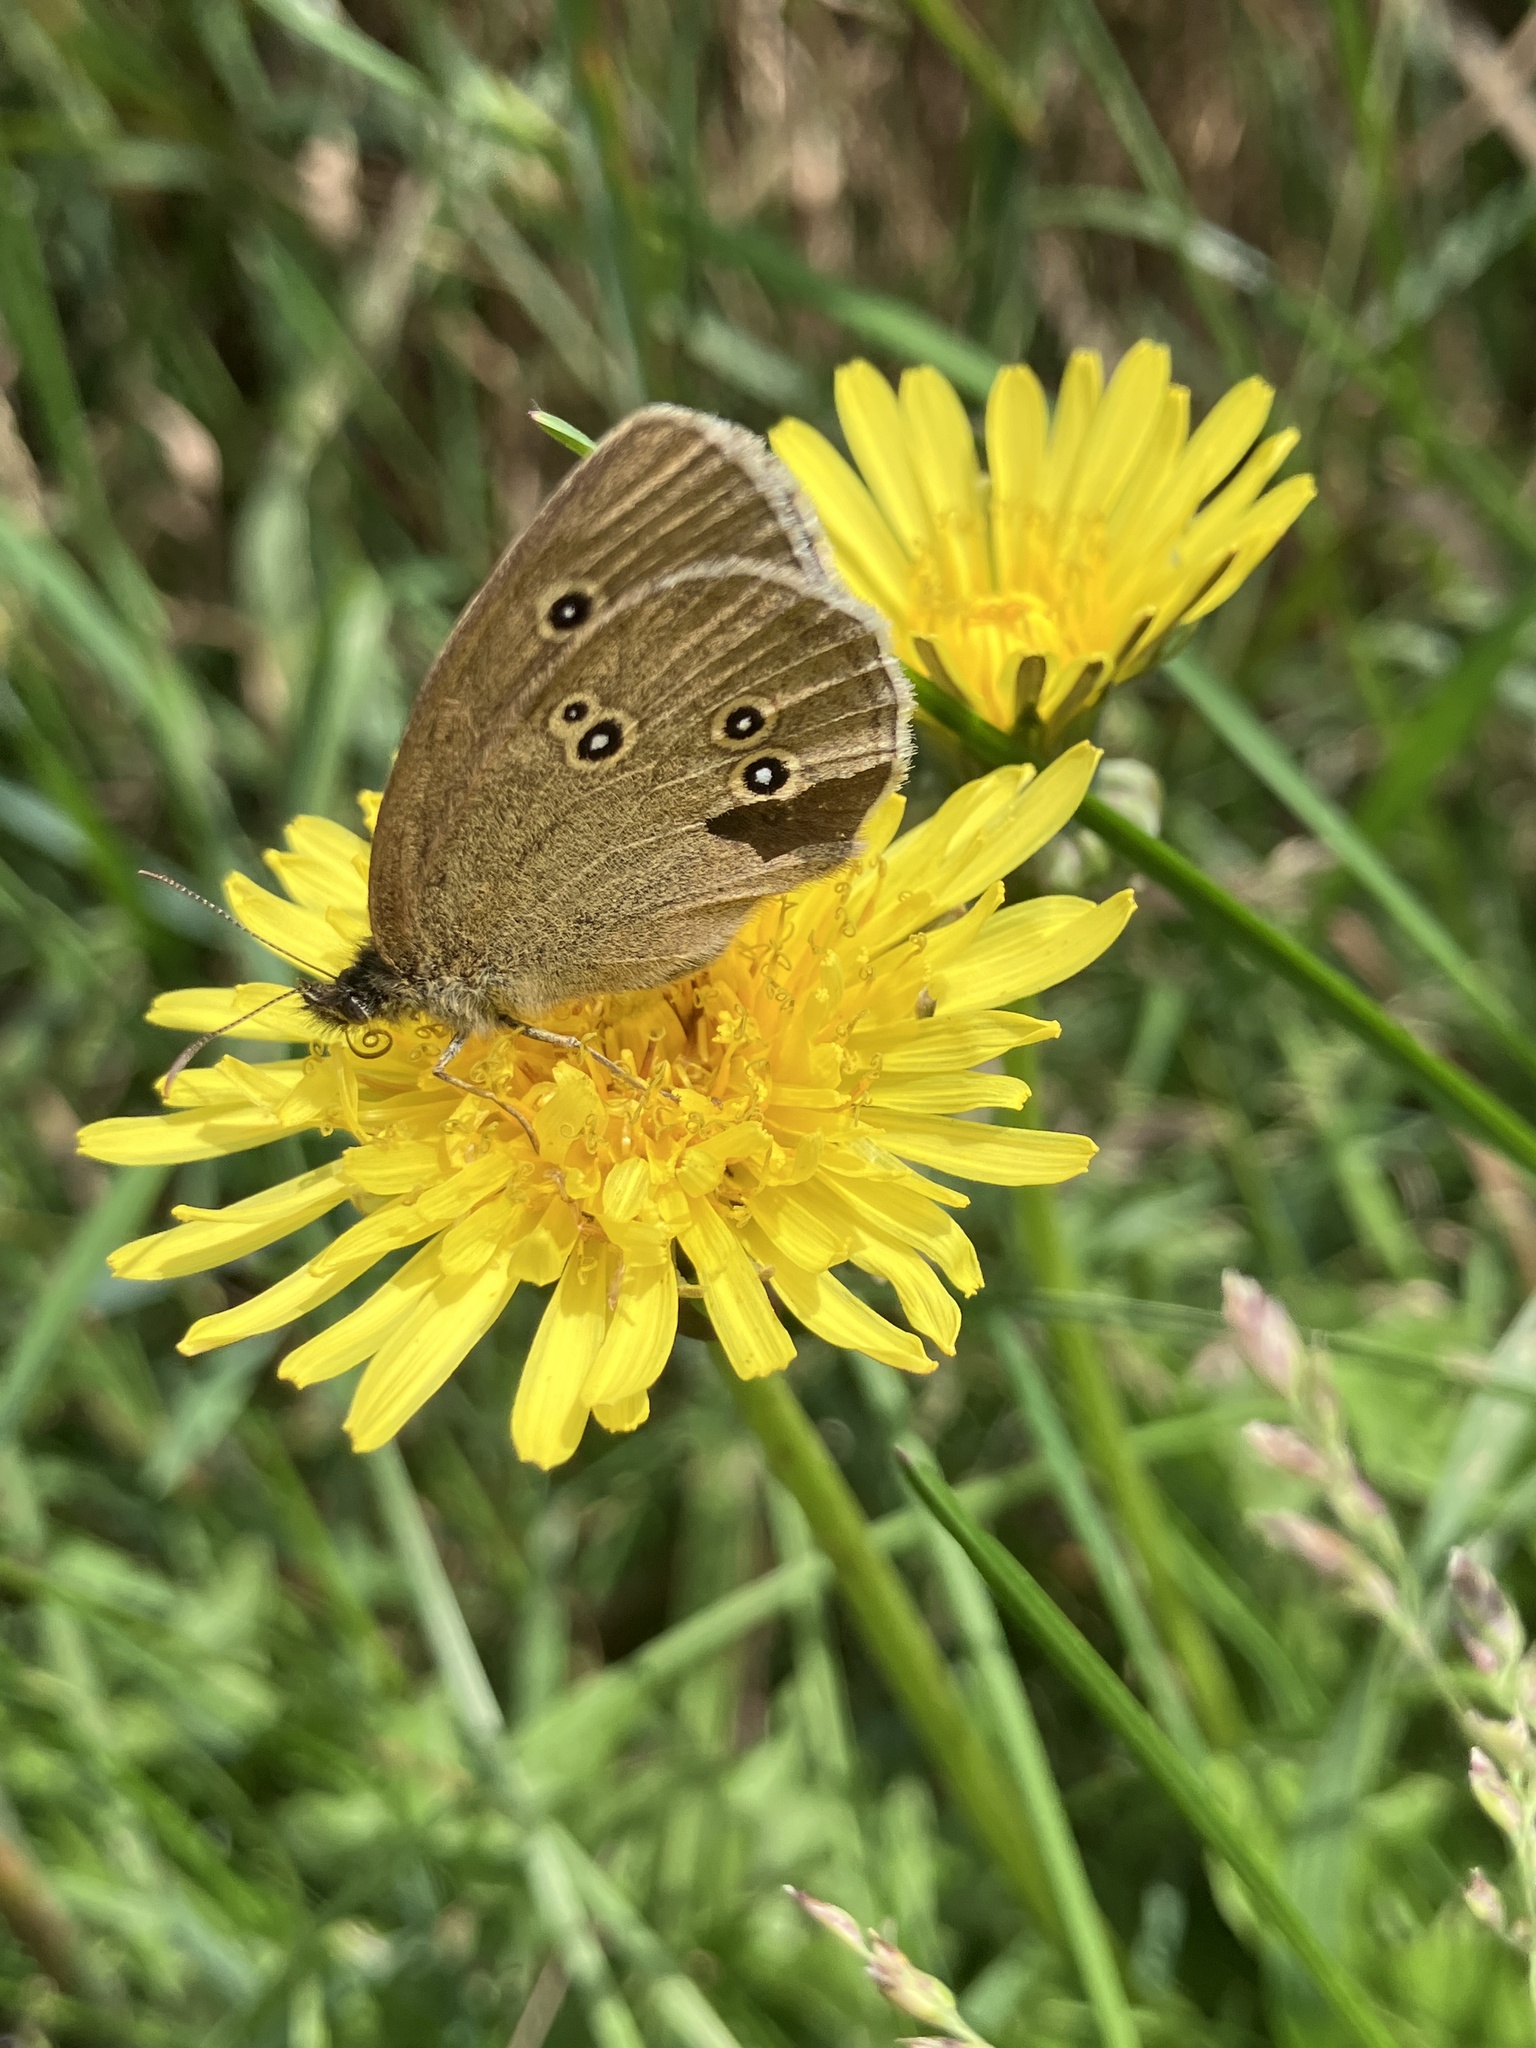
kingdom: Animalia
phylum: Arthropoda
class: Insecta
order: Lepidoptera
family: Nymphalidae
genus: Aphantopus
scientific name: Aphantopus hyperantus
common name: Ringlet
